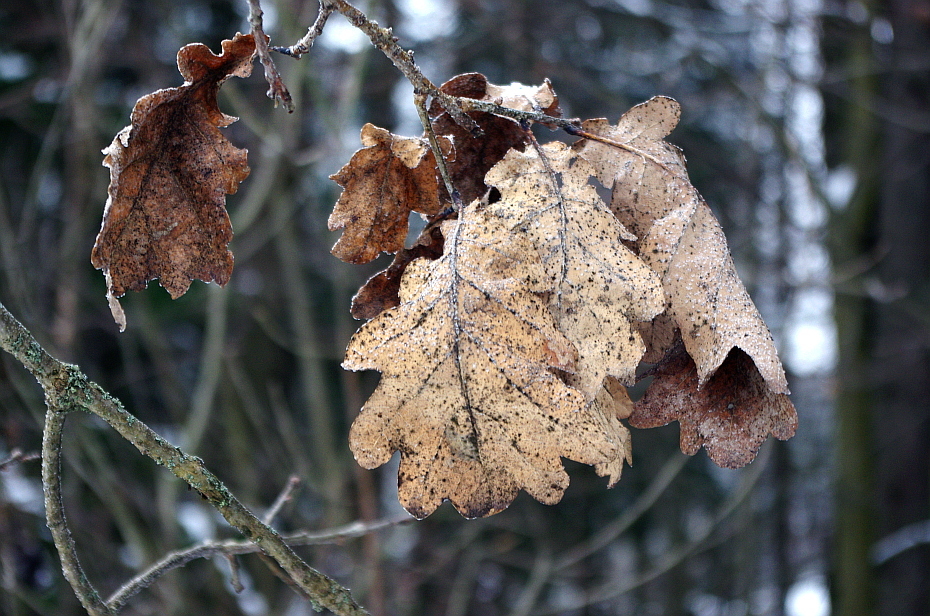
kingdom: Plantae
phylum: Tracheophyta
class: Magnoliopsida
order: Fagales
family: Fagaceae
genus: Quercus
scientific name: Quercus robur
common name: Pedunculate oak
